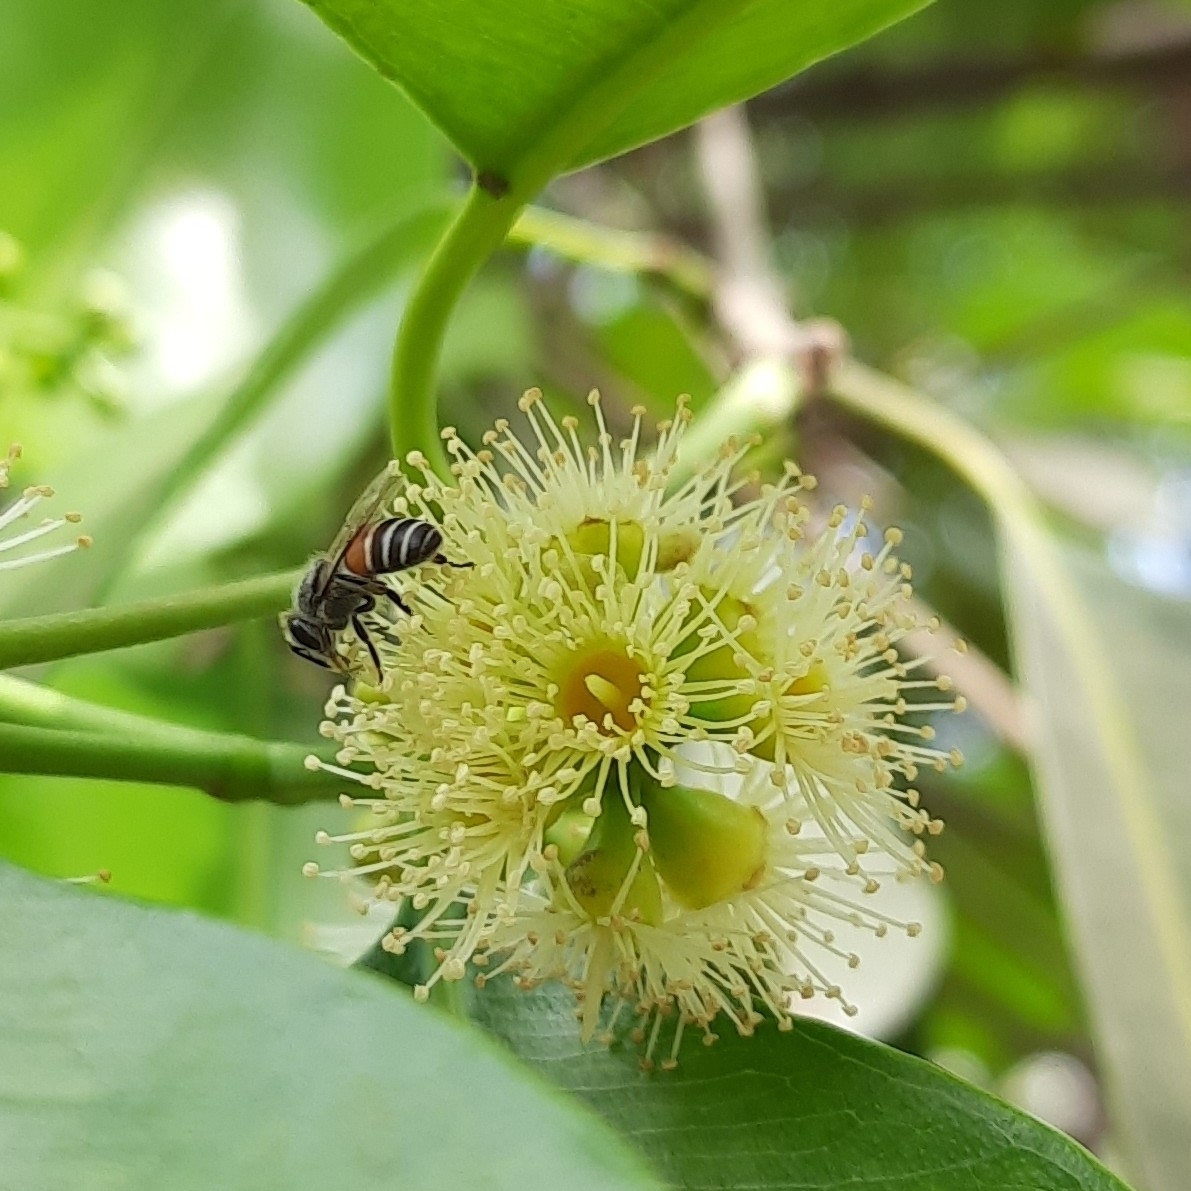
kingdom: Animalia
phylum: Arthropoda
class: Insecta
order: Hymenoptera
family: Apidae
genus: Apis
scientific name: Apis florea
